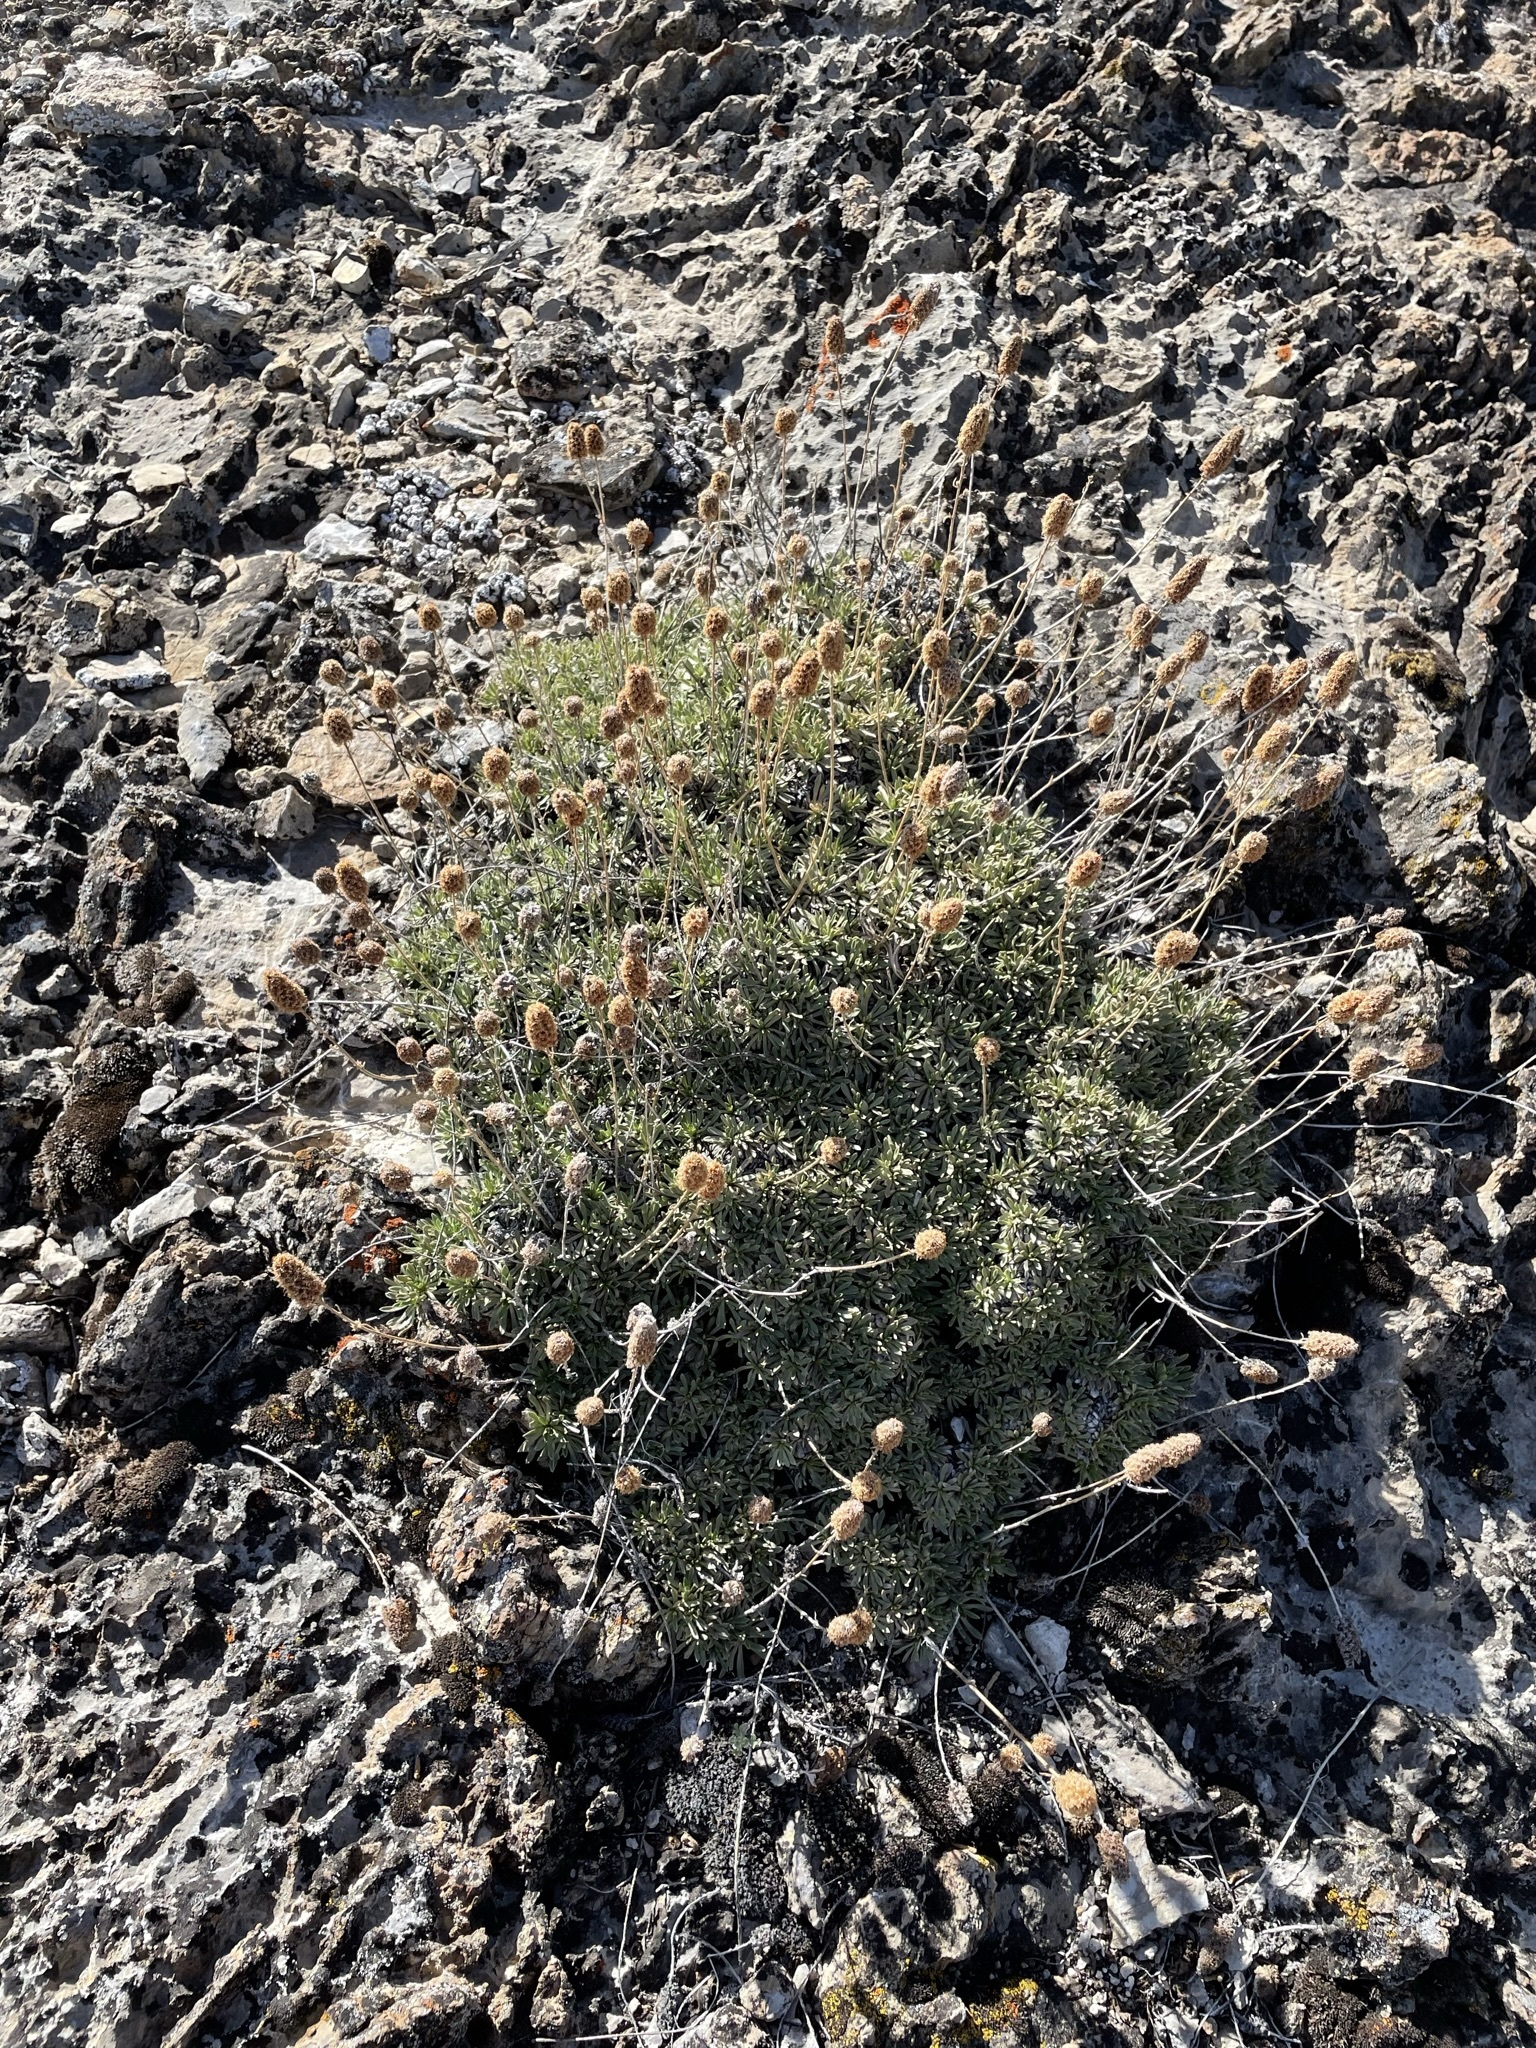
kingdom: Plantae
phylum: Tracheophyta
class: Magnoliopsida
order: Rosales
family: Rosaceae
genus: Petrophytum
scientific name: Petrophytum caespitosum
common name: Mat rockspirea
